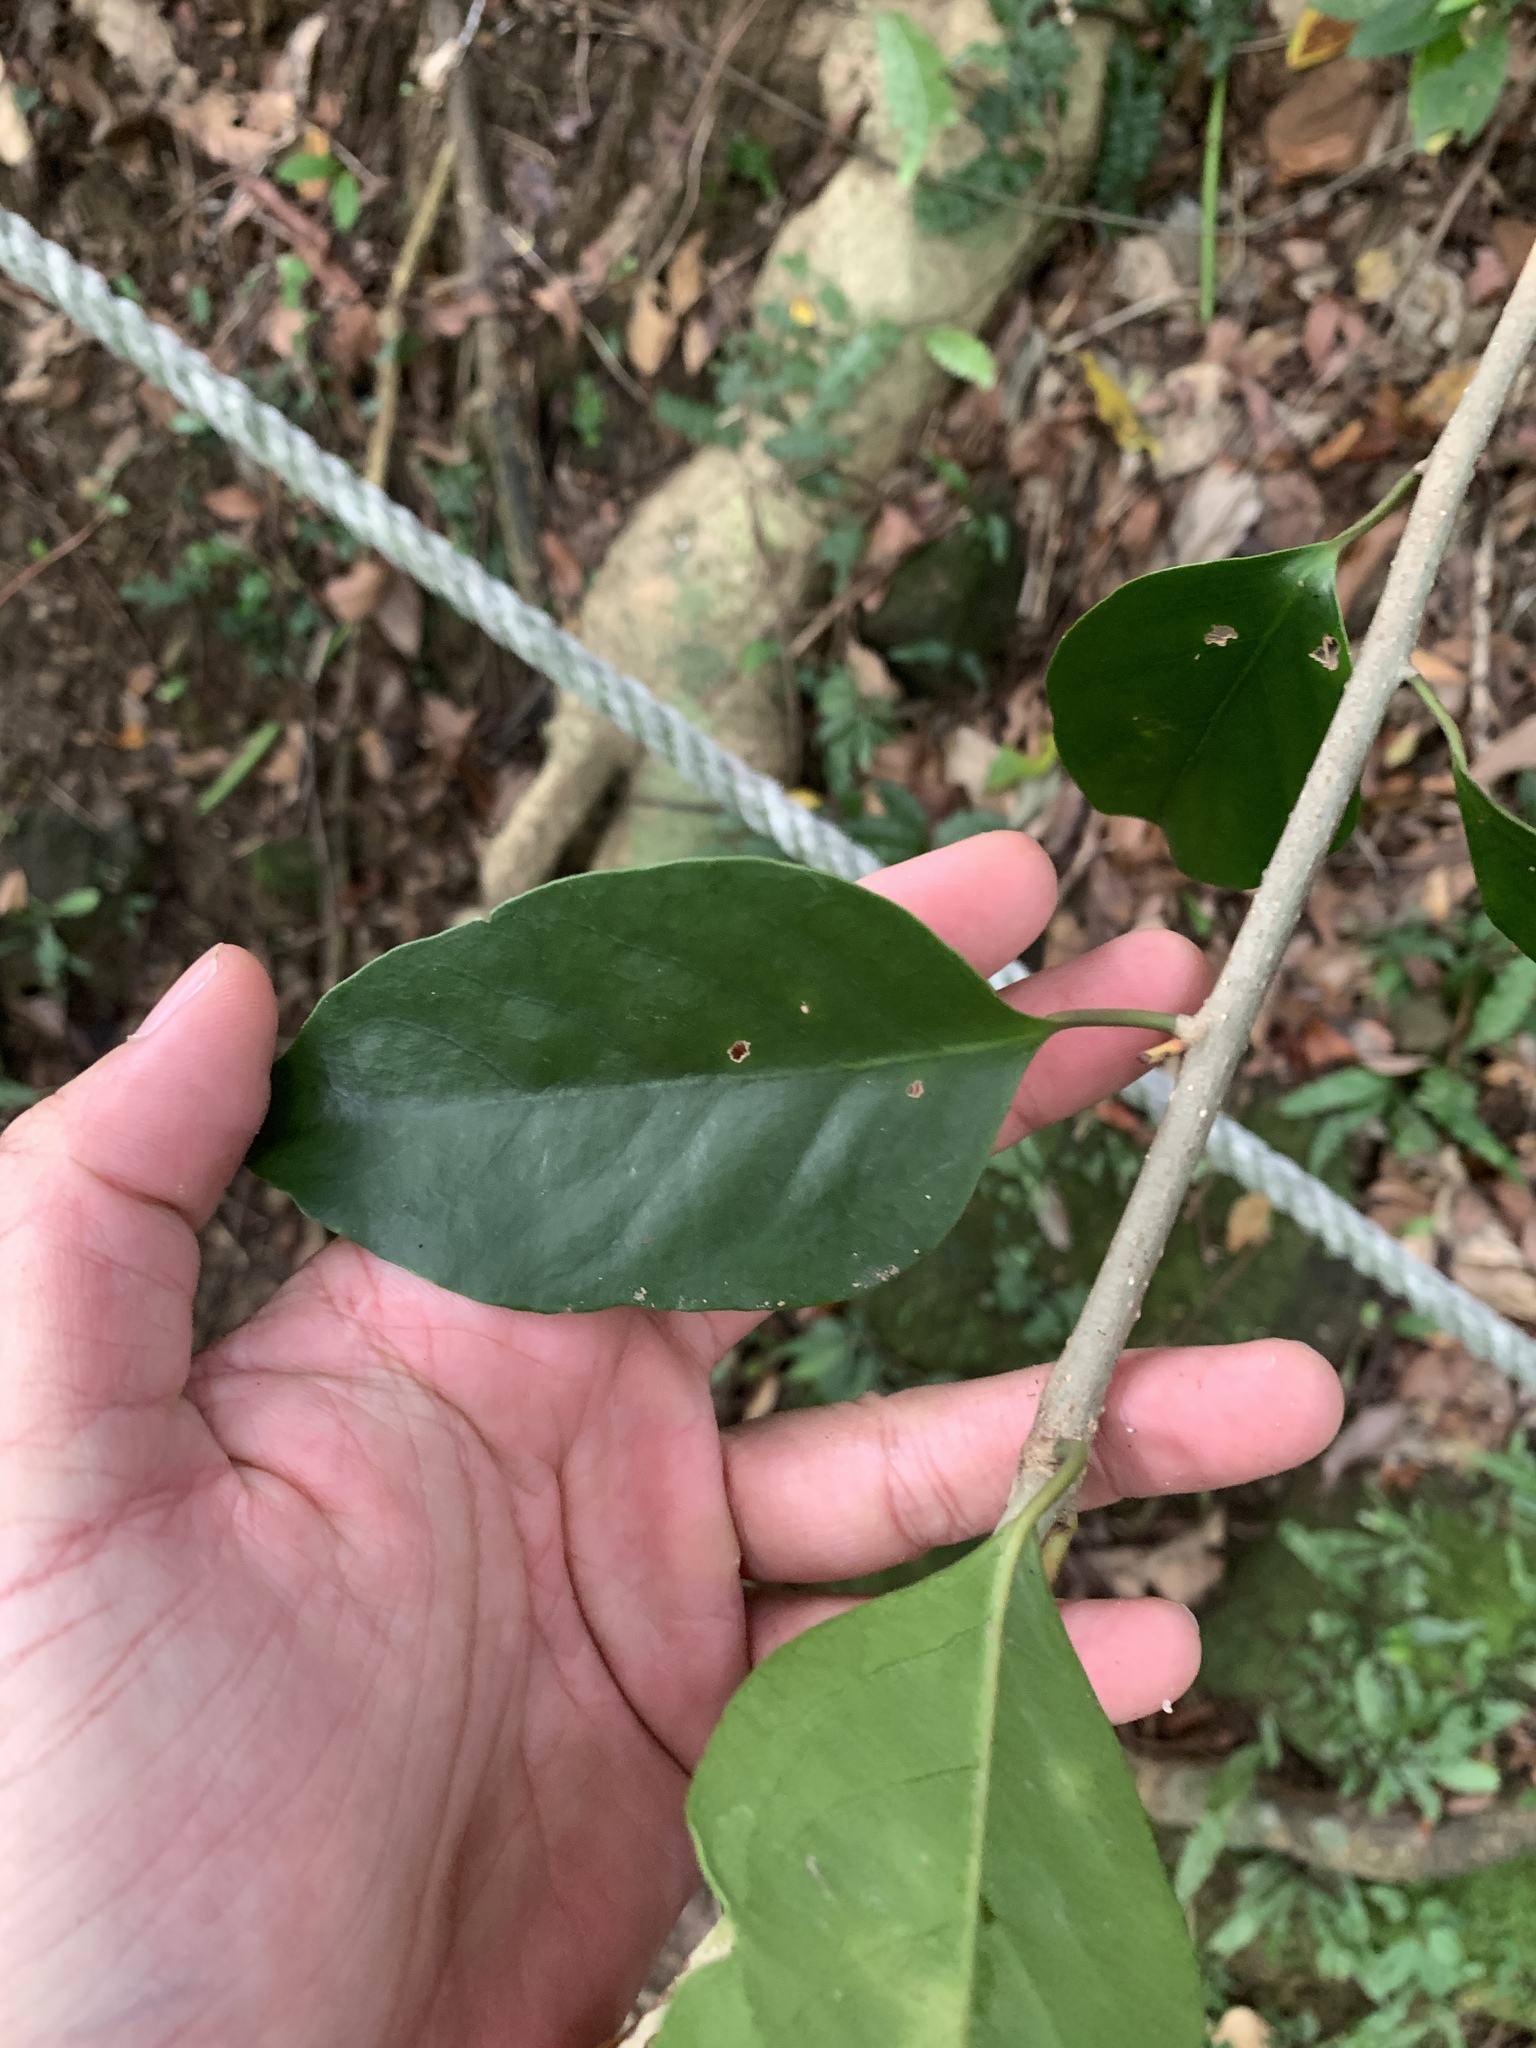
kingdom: Plantae
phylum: Tracheophyta
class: Magnoliopsida
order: Solanales
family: Convolvulaceae
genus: Erycibe
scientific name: Erycibe henryi
